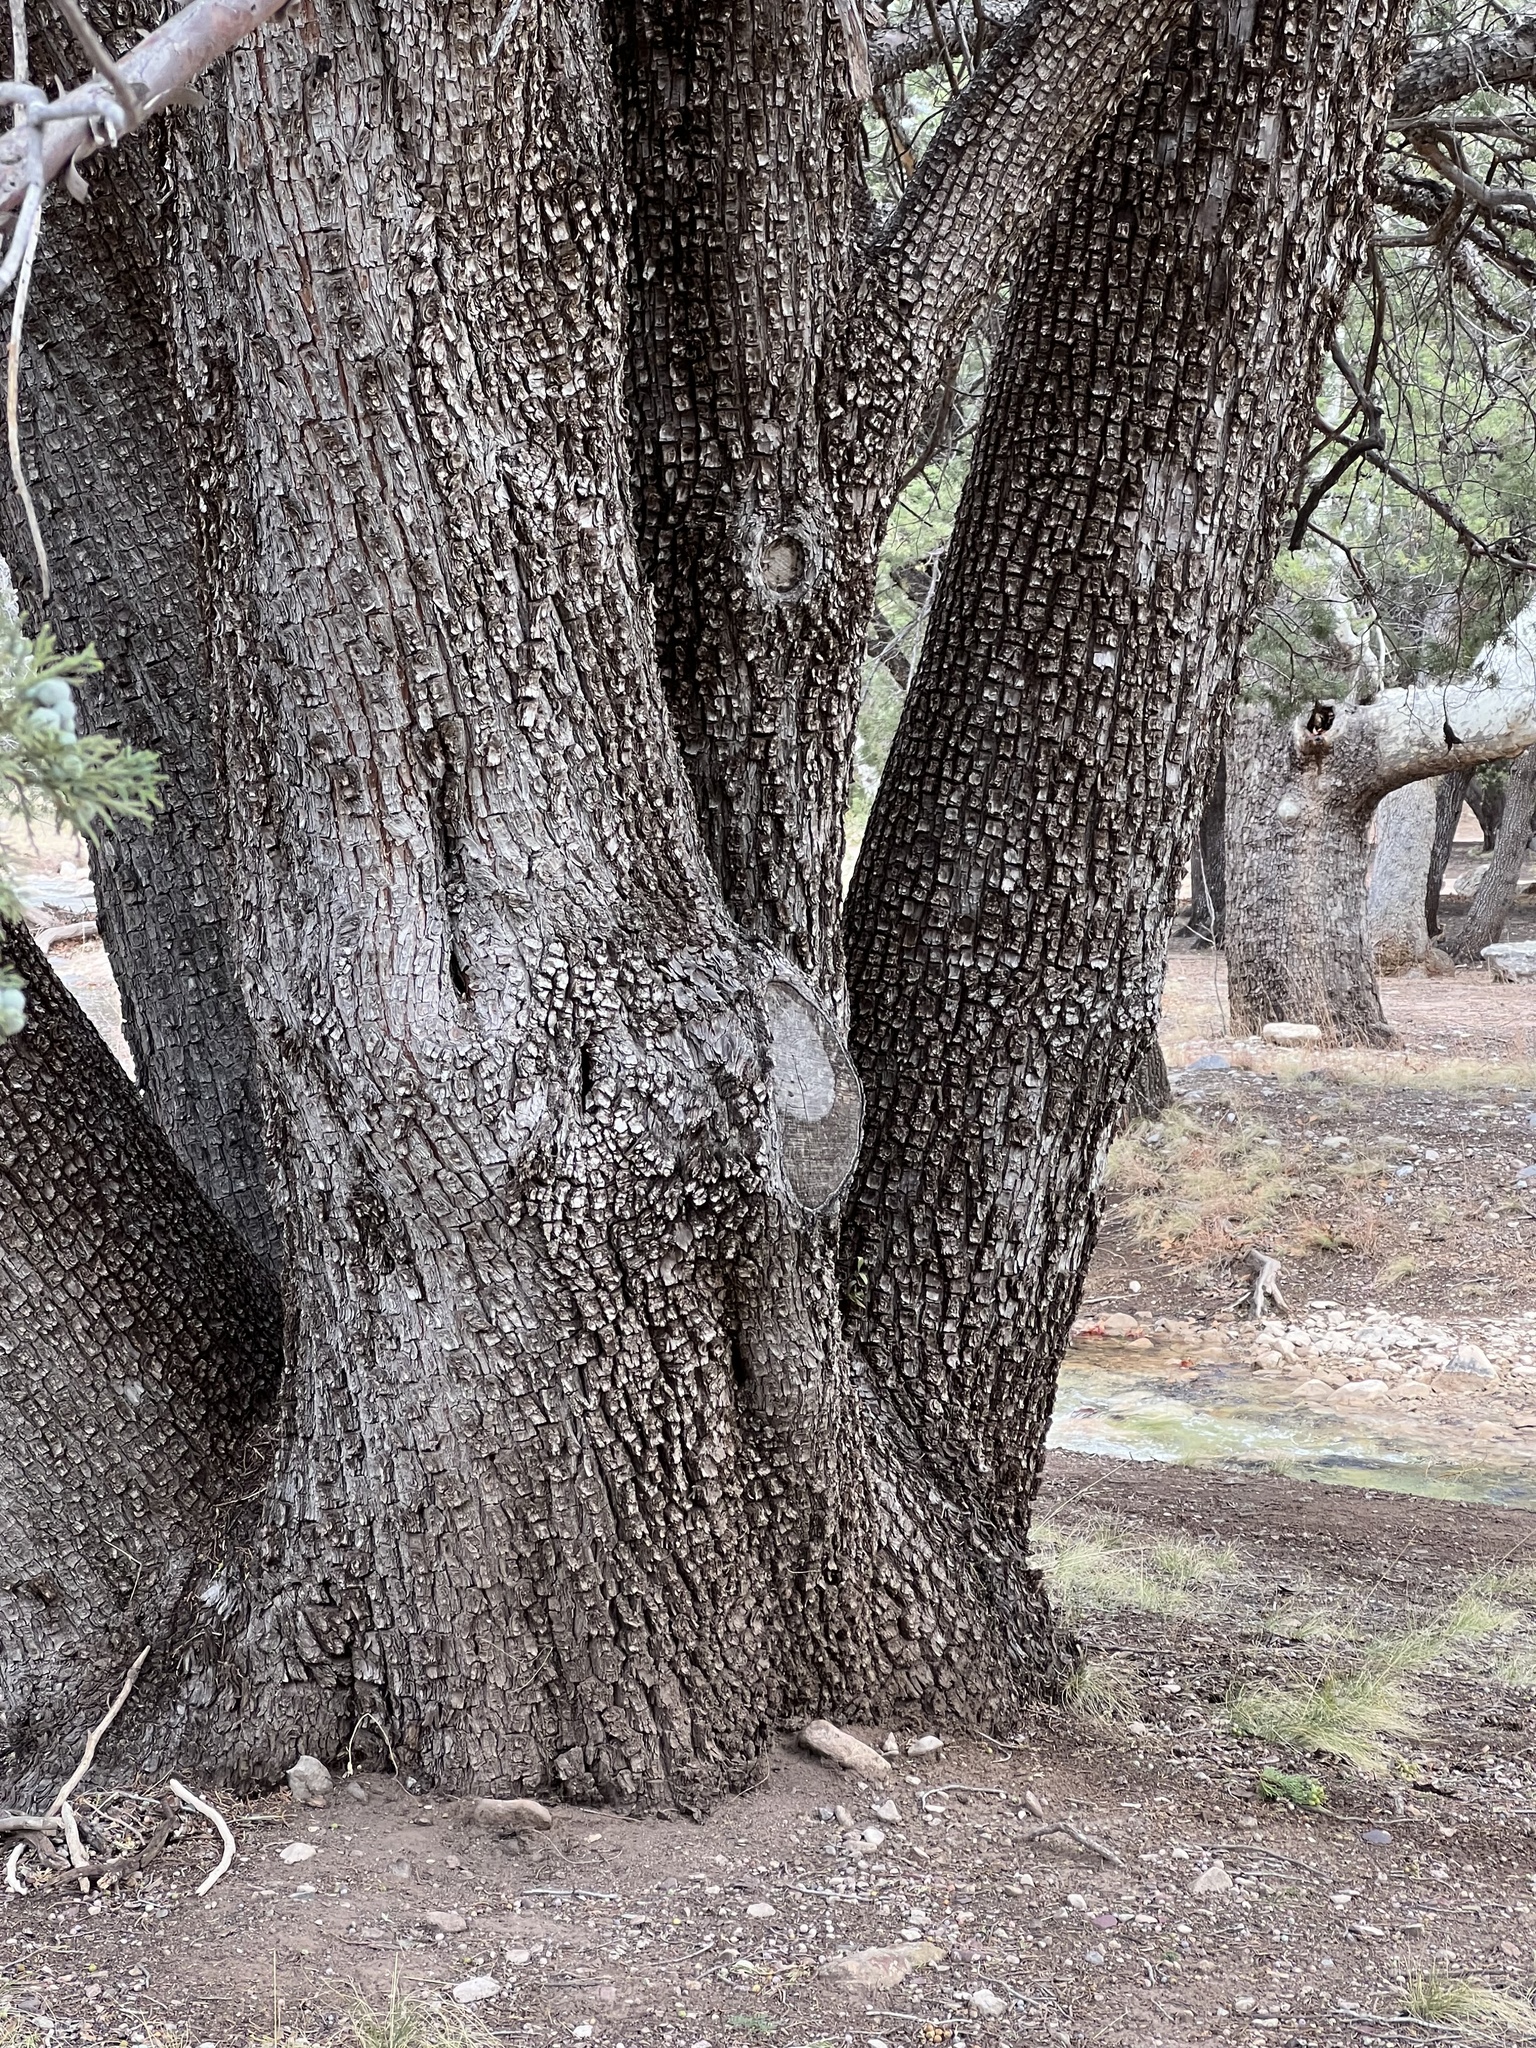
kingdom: Plantae
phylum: Tracheophyta
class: Pinopsida
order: Pinales
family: Cupressaceae
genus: Juniperus
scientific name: Juniperus deppeana
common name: Alligator juniper
